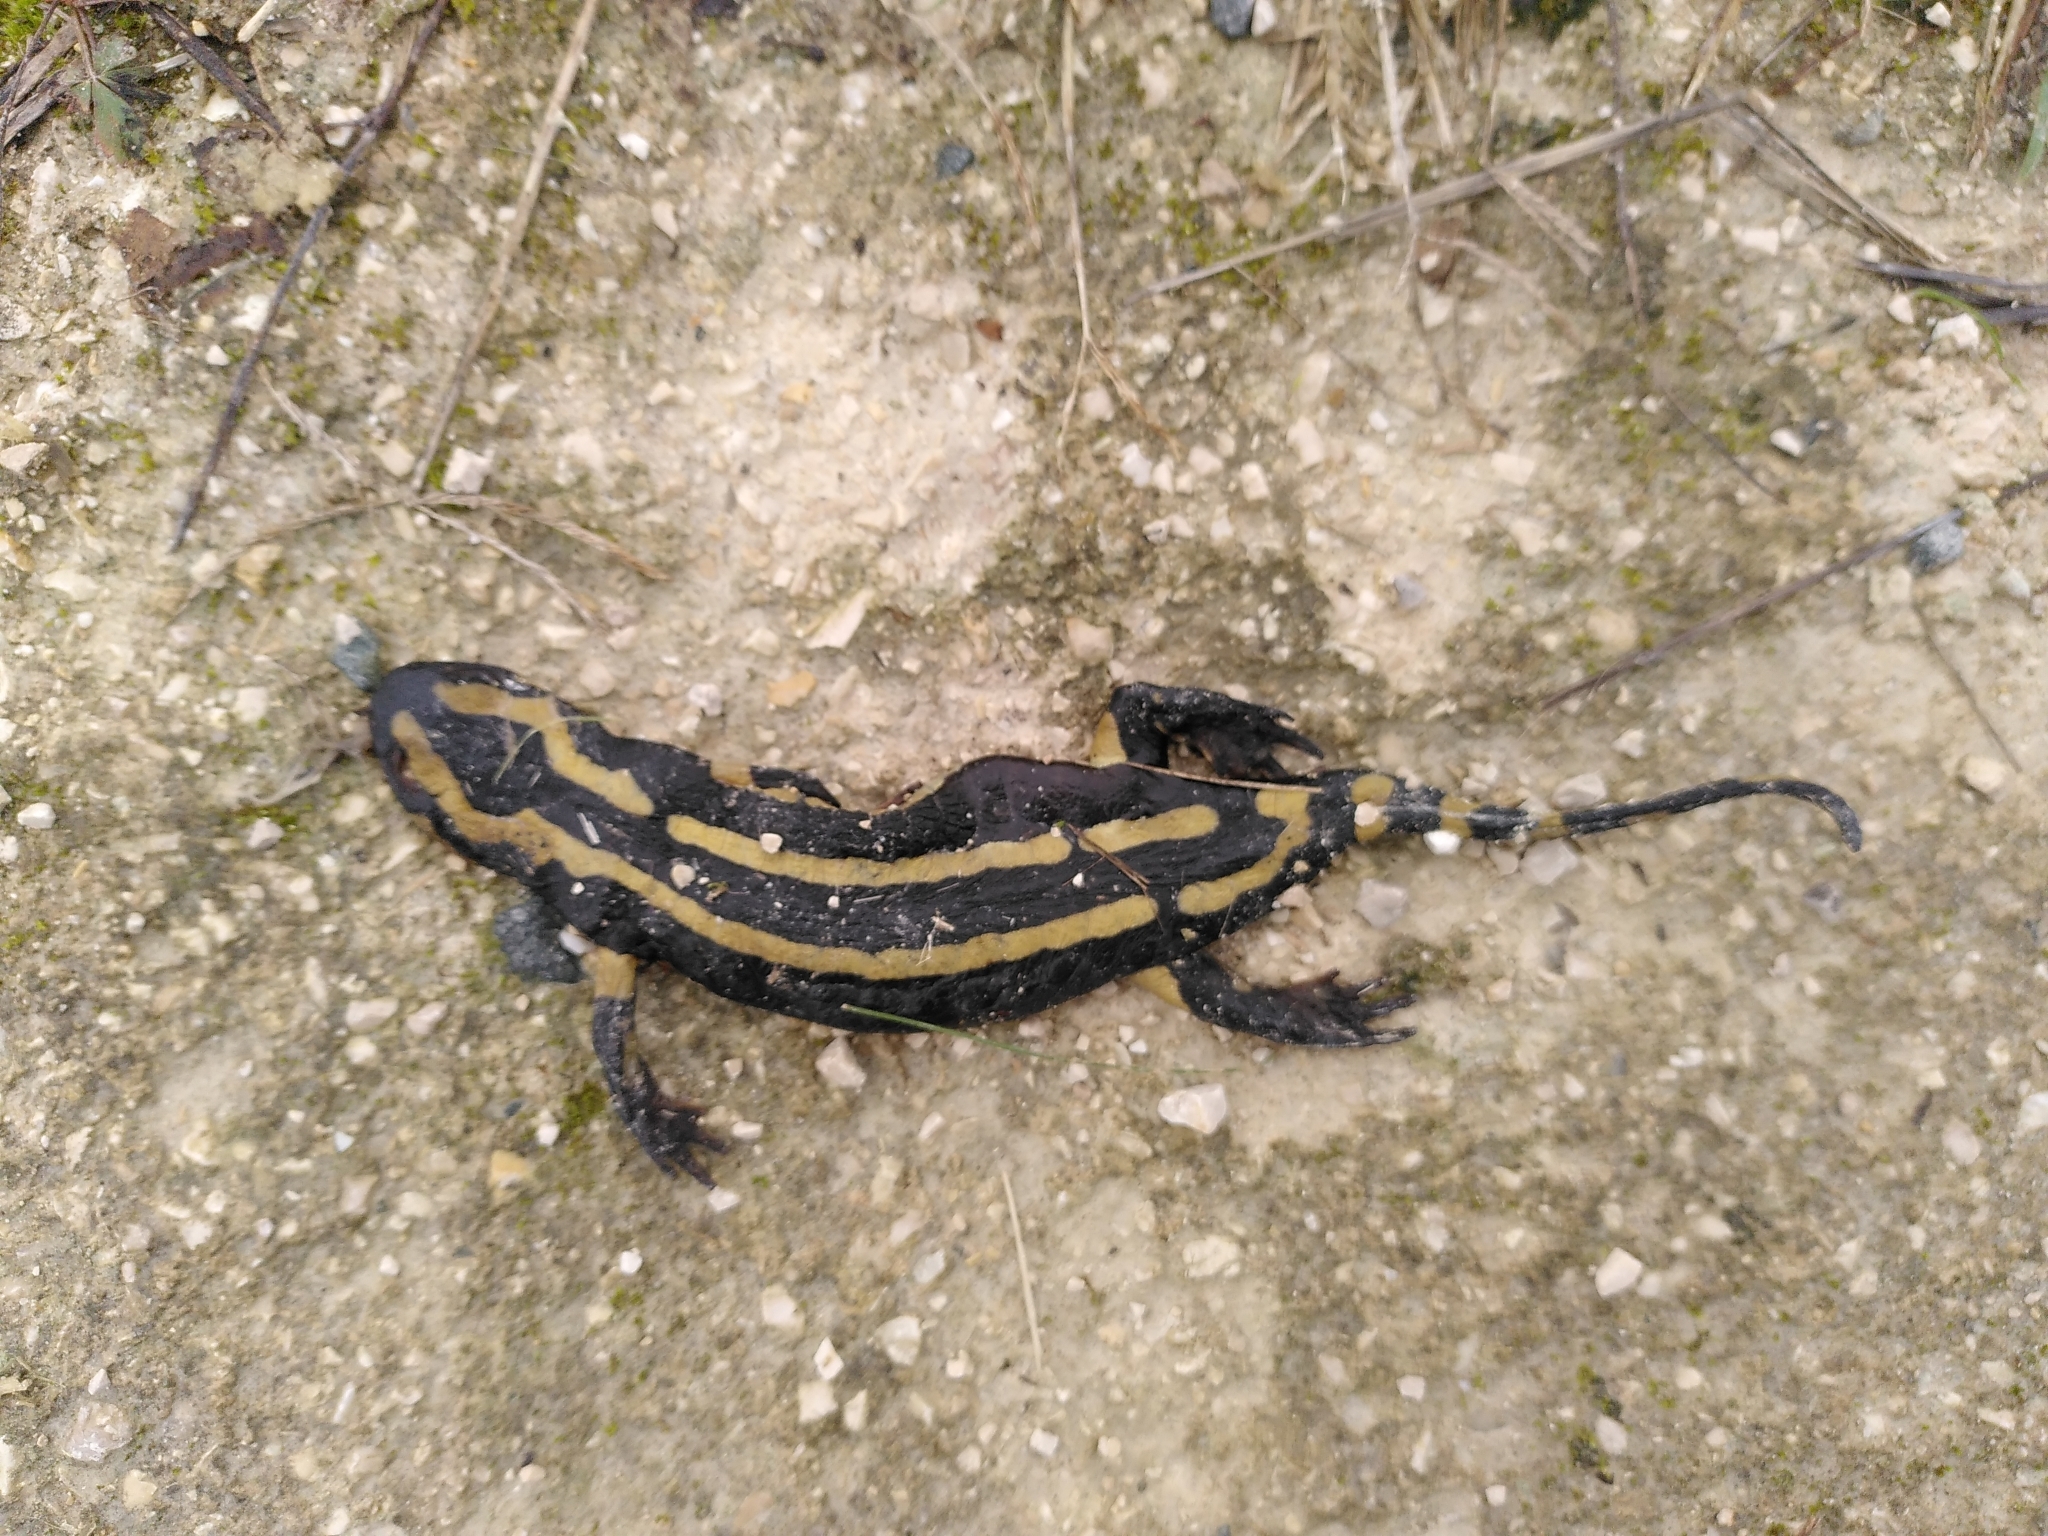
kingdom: Animalia
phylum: Chordata
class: Amphibia
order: Caudata
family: Salamandridae
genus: Salamandra
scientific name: Salamandra salamandra
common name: Fire salamander
